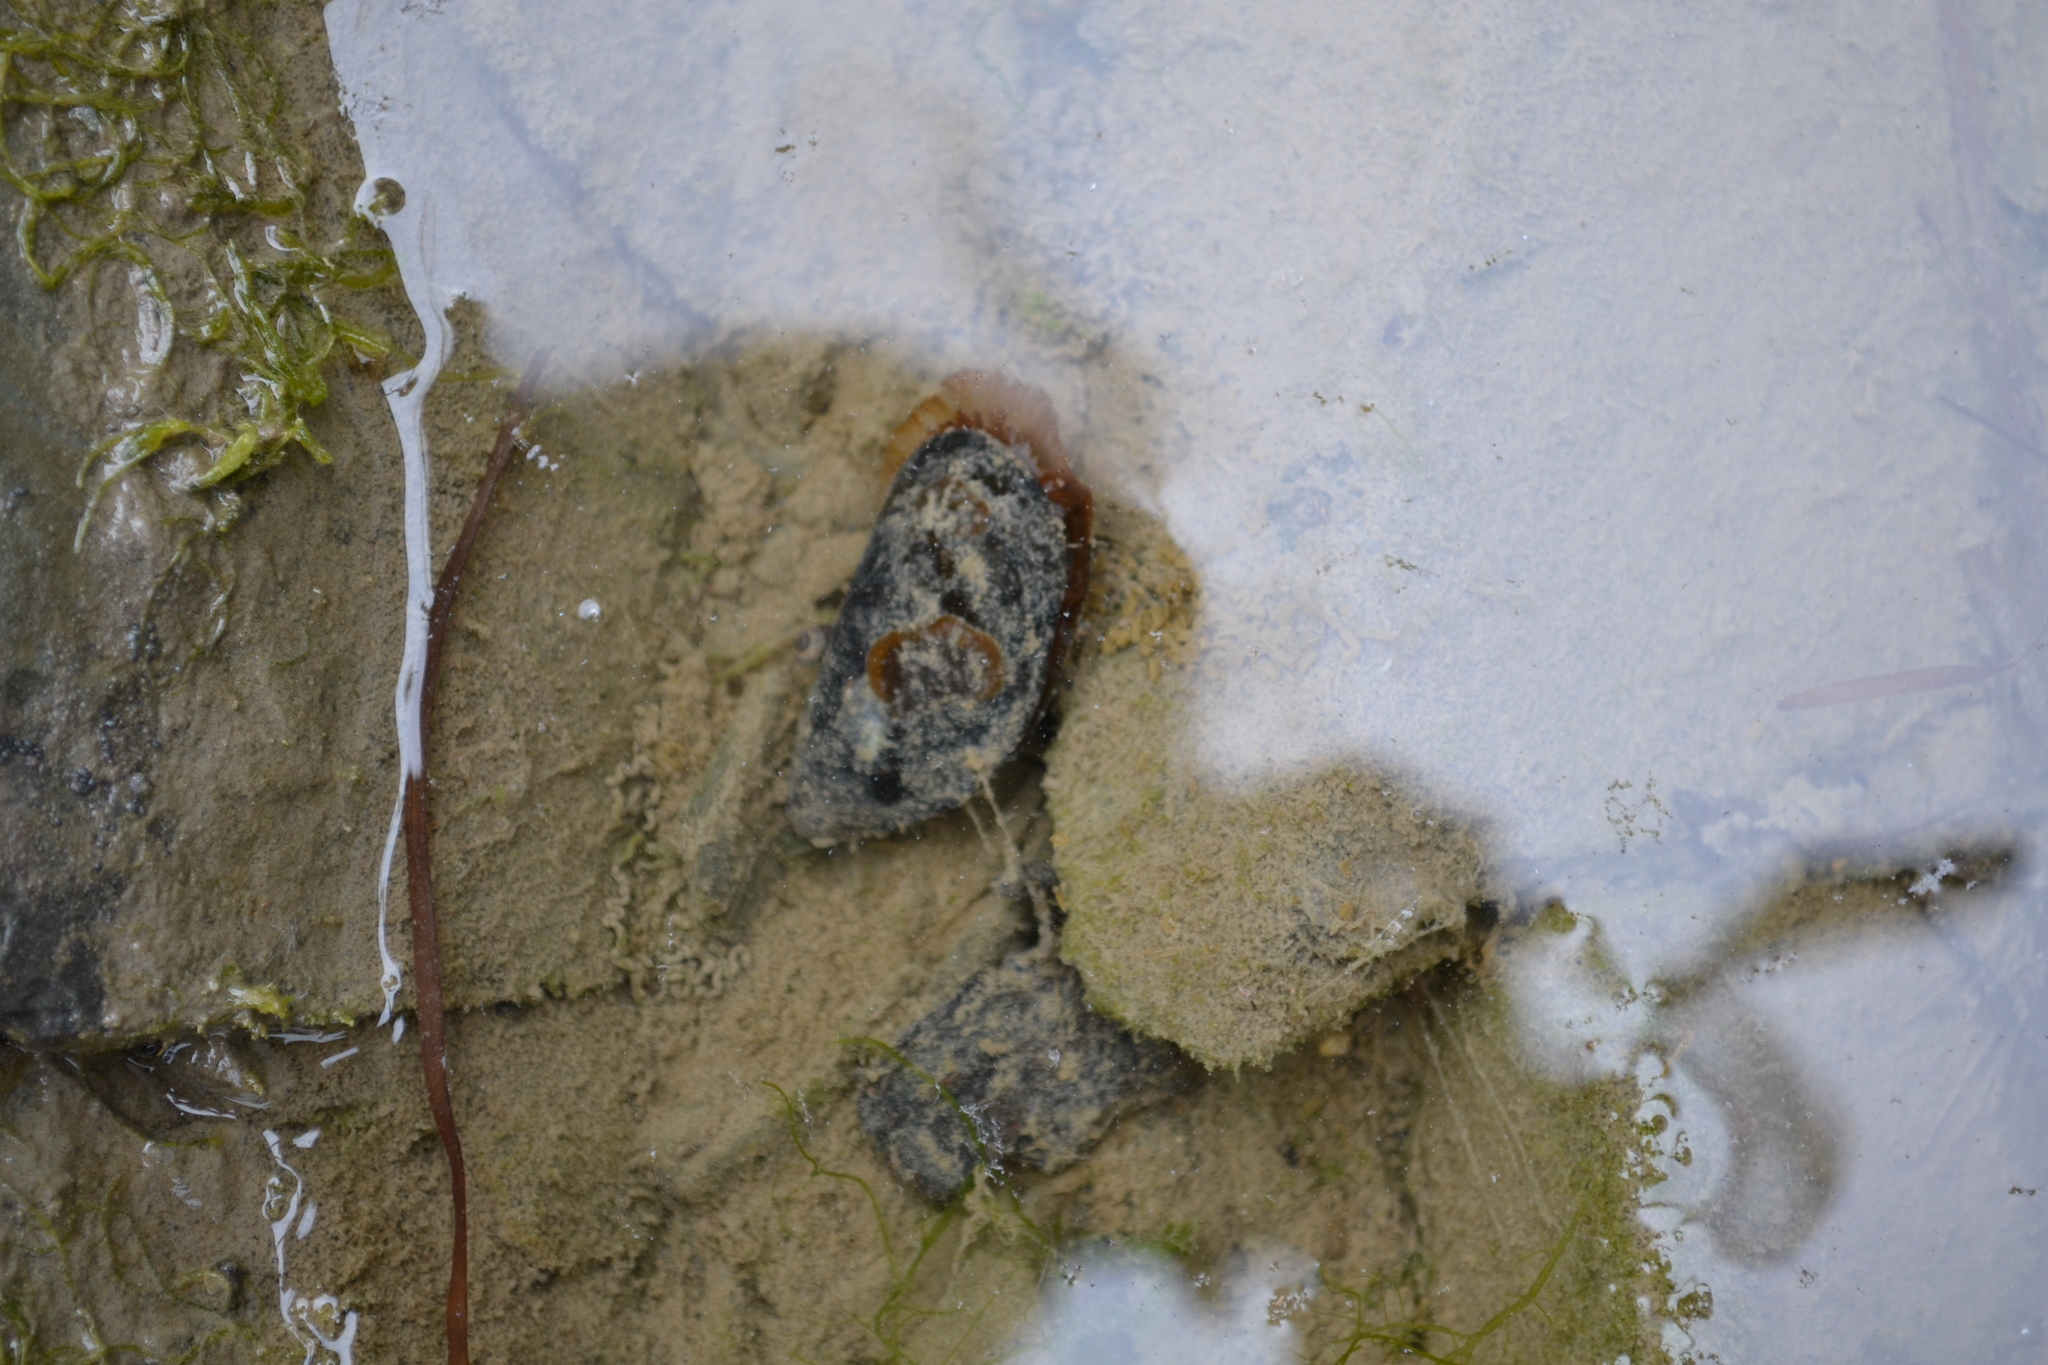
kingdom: Animalia
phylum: Mollusca
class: Bivalvia
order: Mytilida
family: Mytilidae
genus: Mytilus
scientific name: Mytilus
